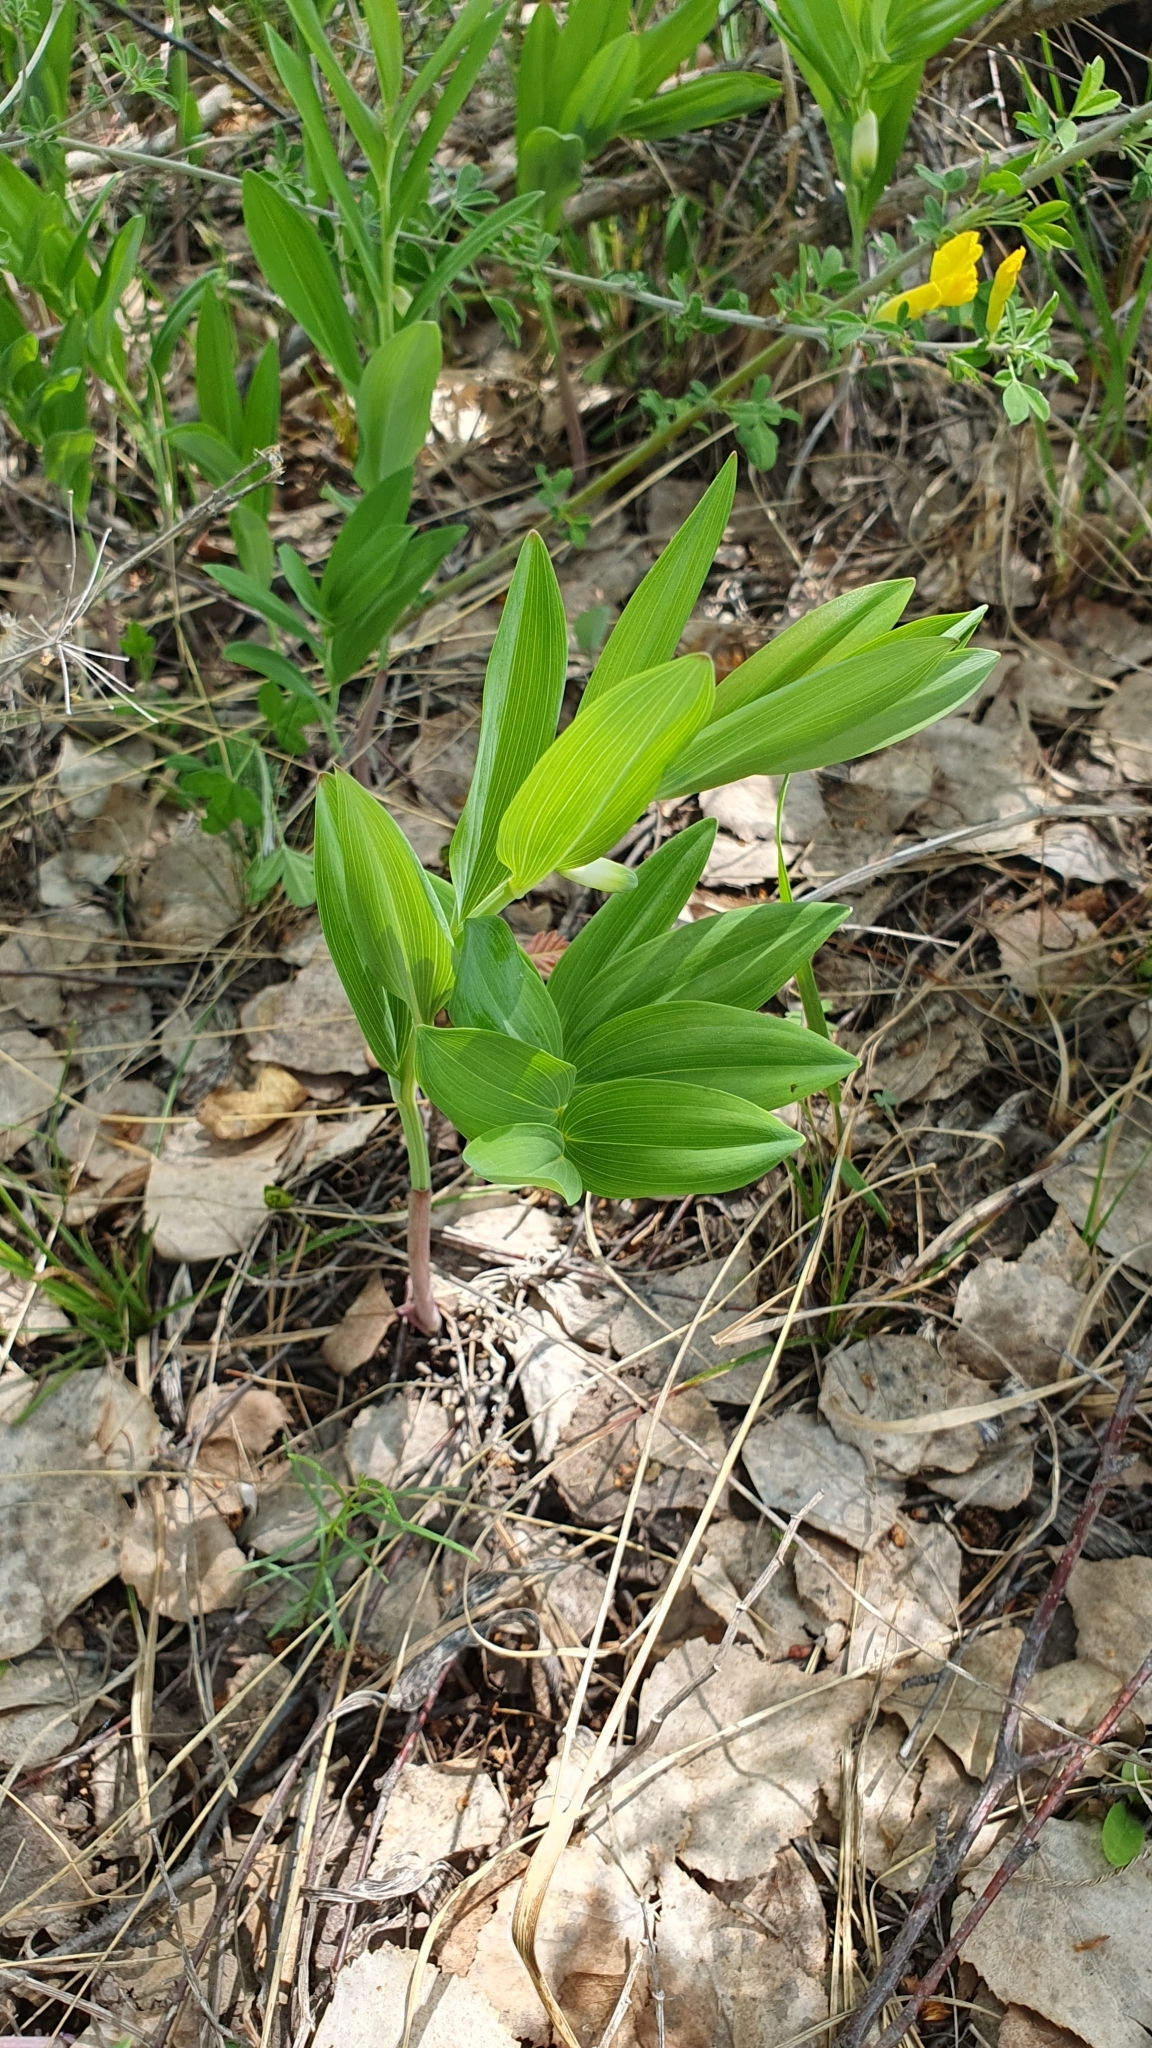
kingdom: Plantae
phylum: Tracheophyta
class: Liliopsida
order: Asparagales
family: Asparagaceae
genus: Polygonatum
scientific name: Polygonatum odoratum
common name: Angular solomon's-seal
